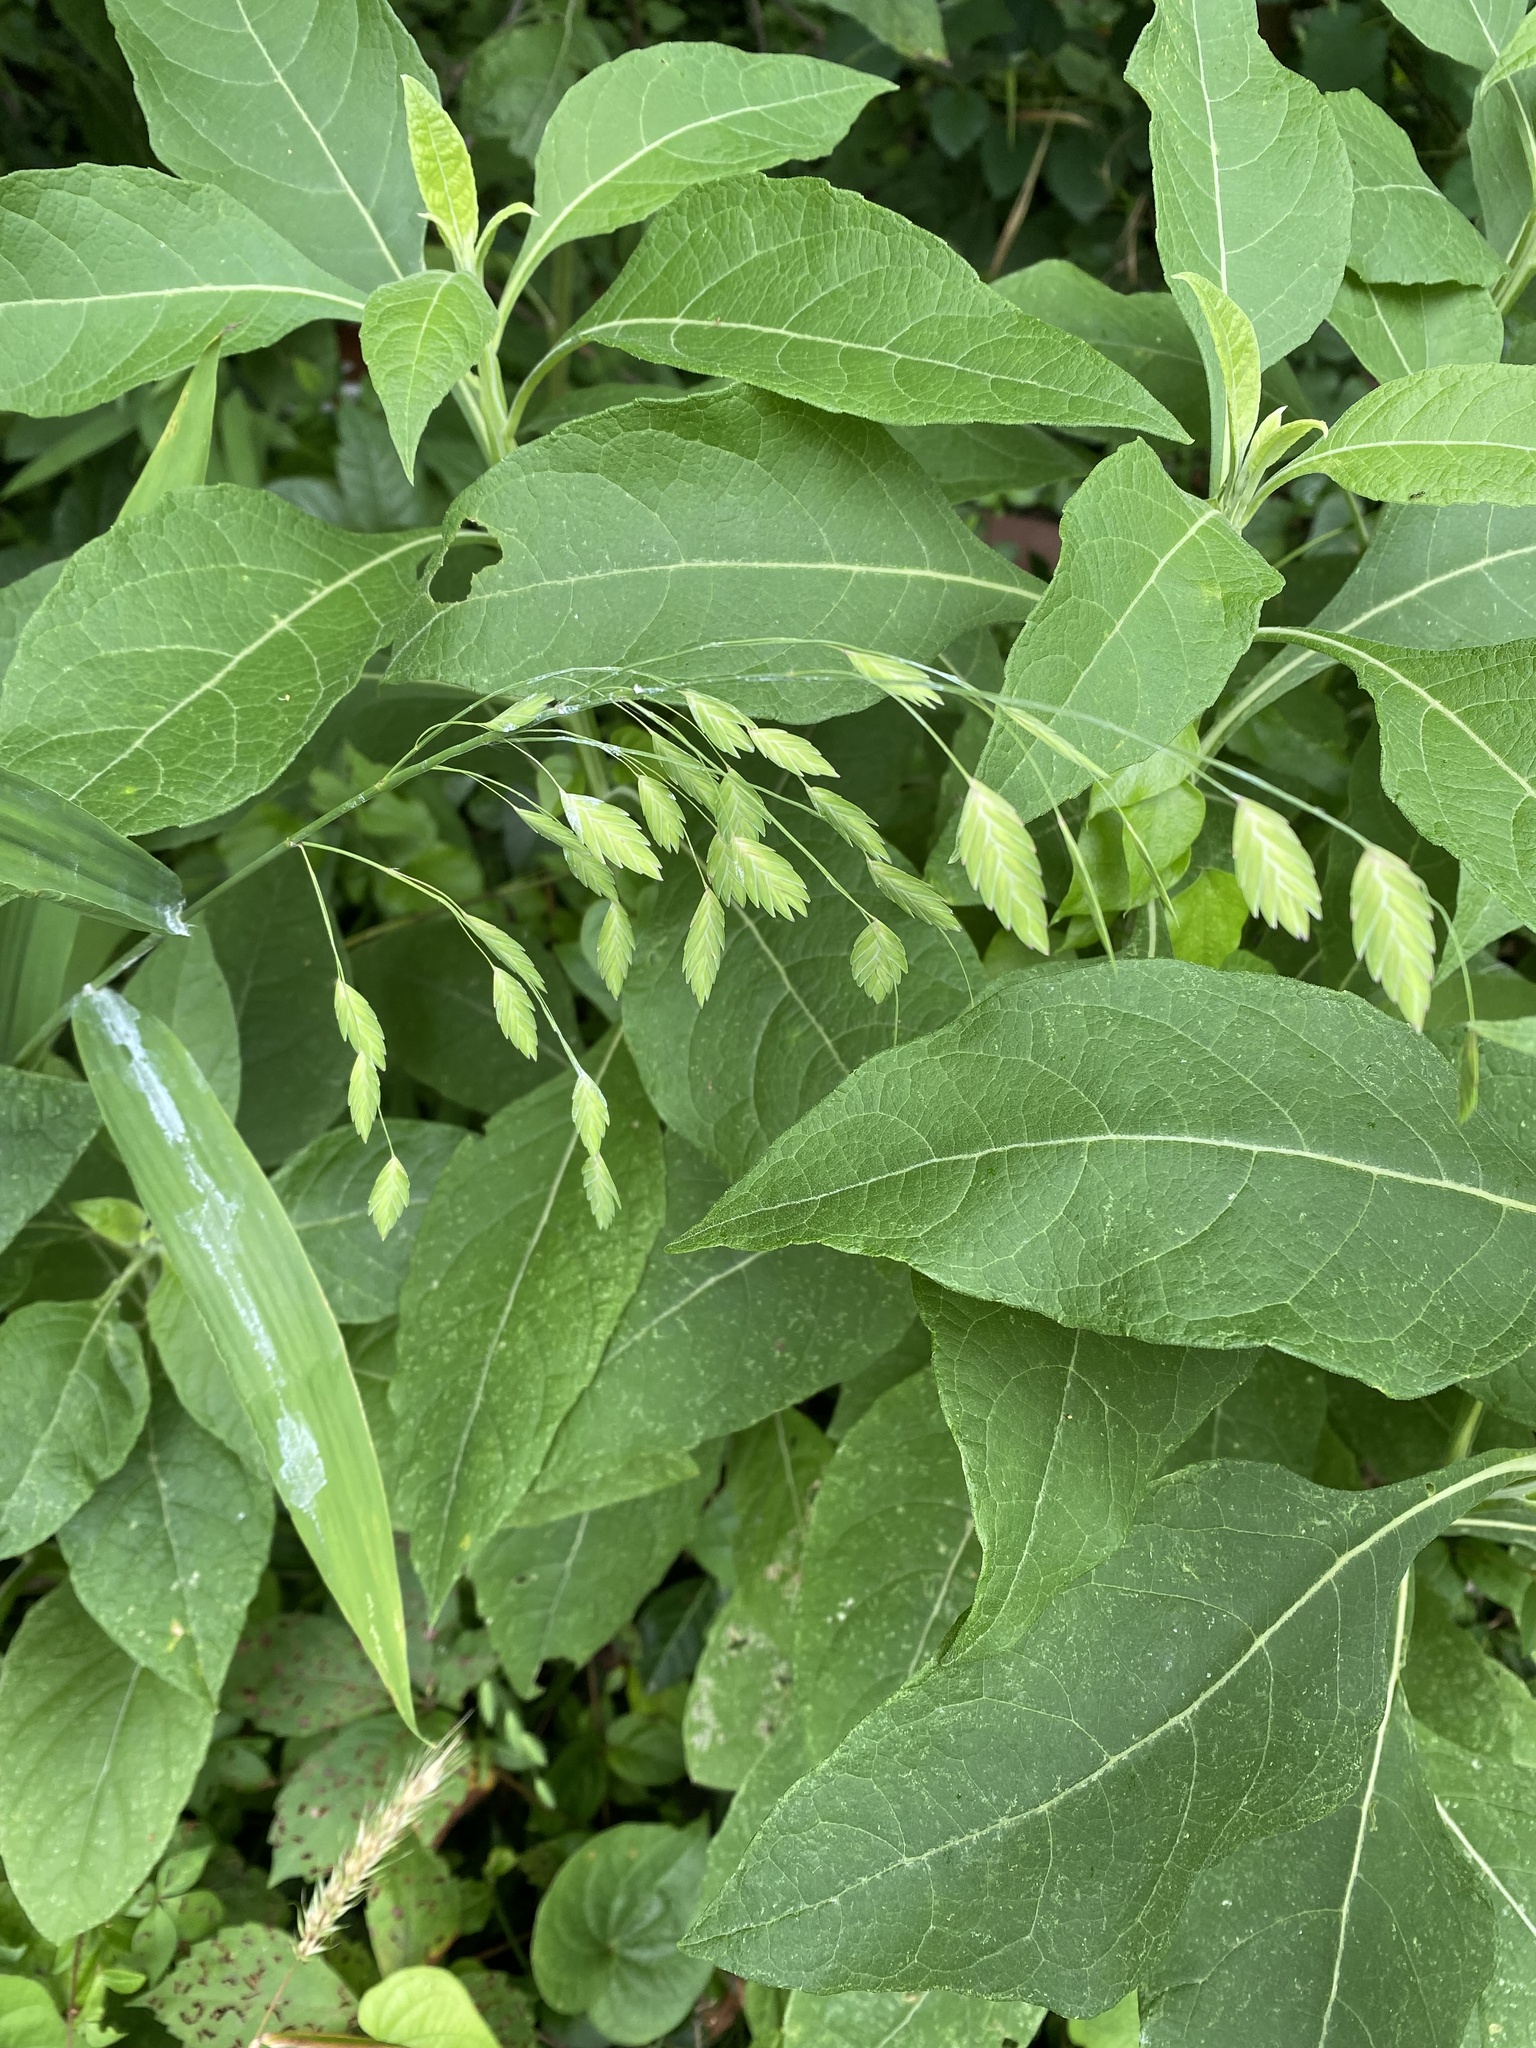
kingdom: Plantae
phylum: Tracheophyta
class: Liliopsida
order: Poales
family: Poaceae
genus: Chasmanthium
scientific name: Chasmanthium latifolium
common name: Broad-leaved chasmanthium
